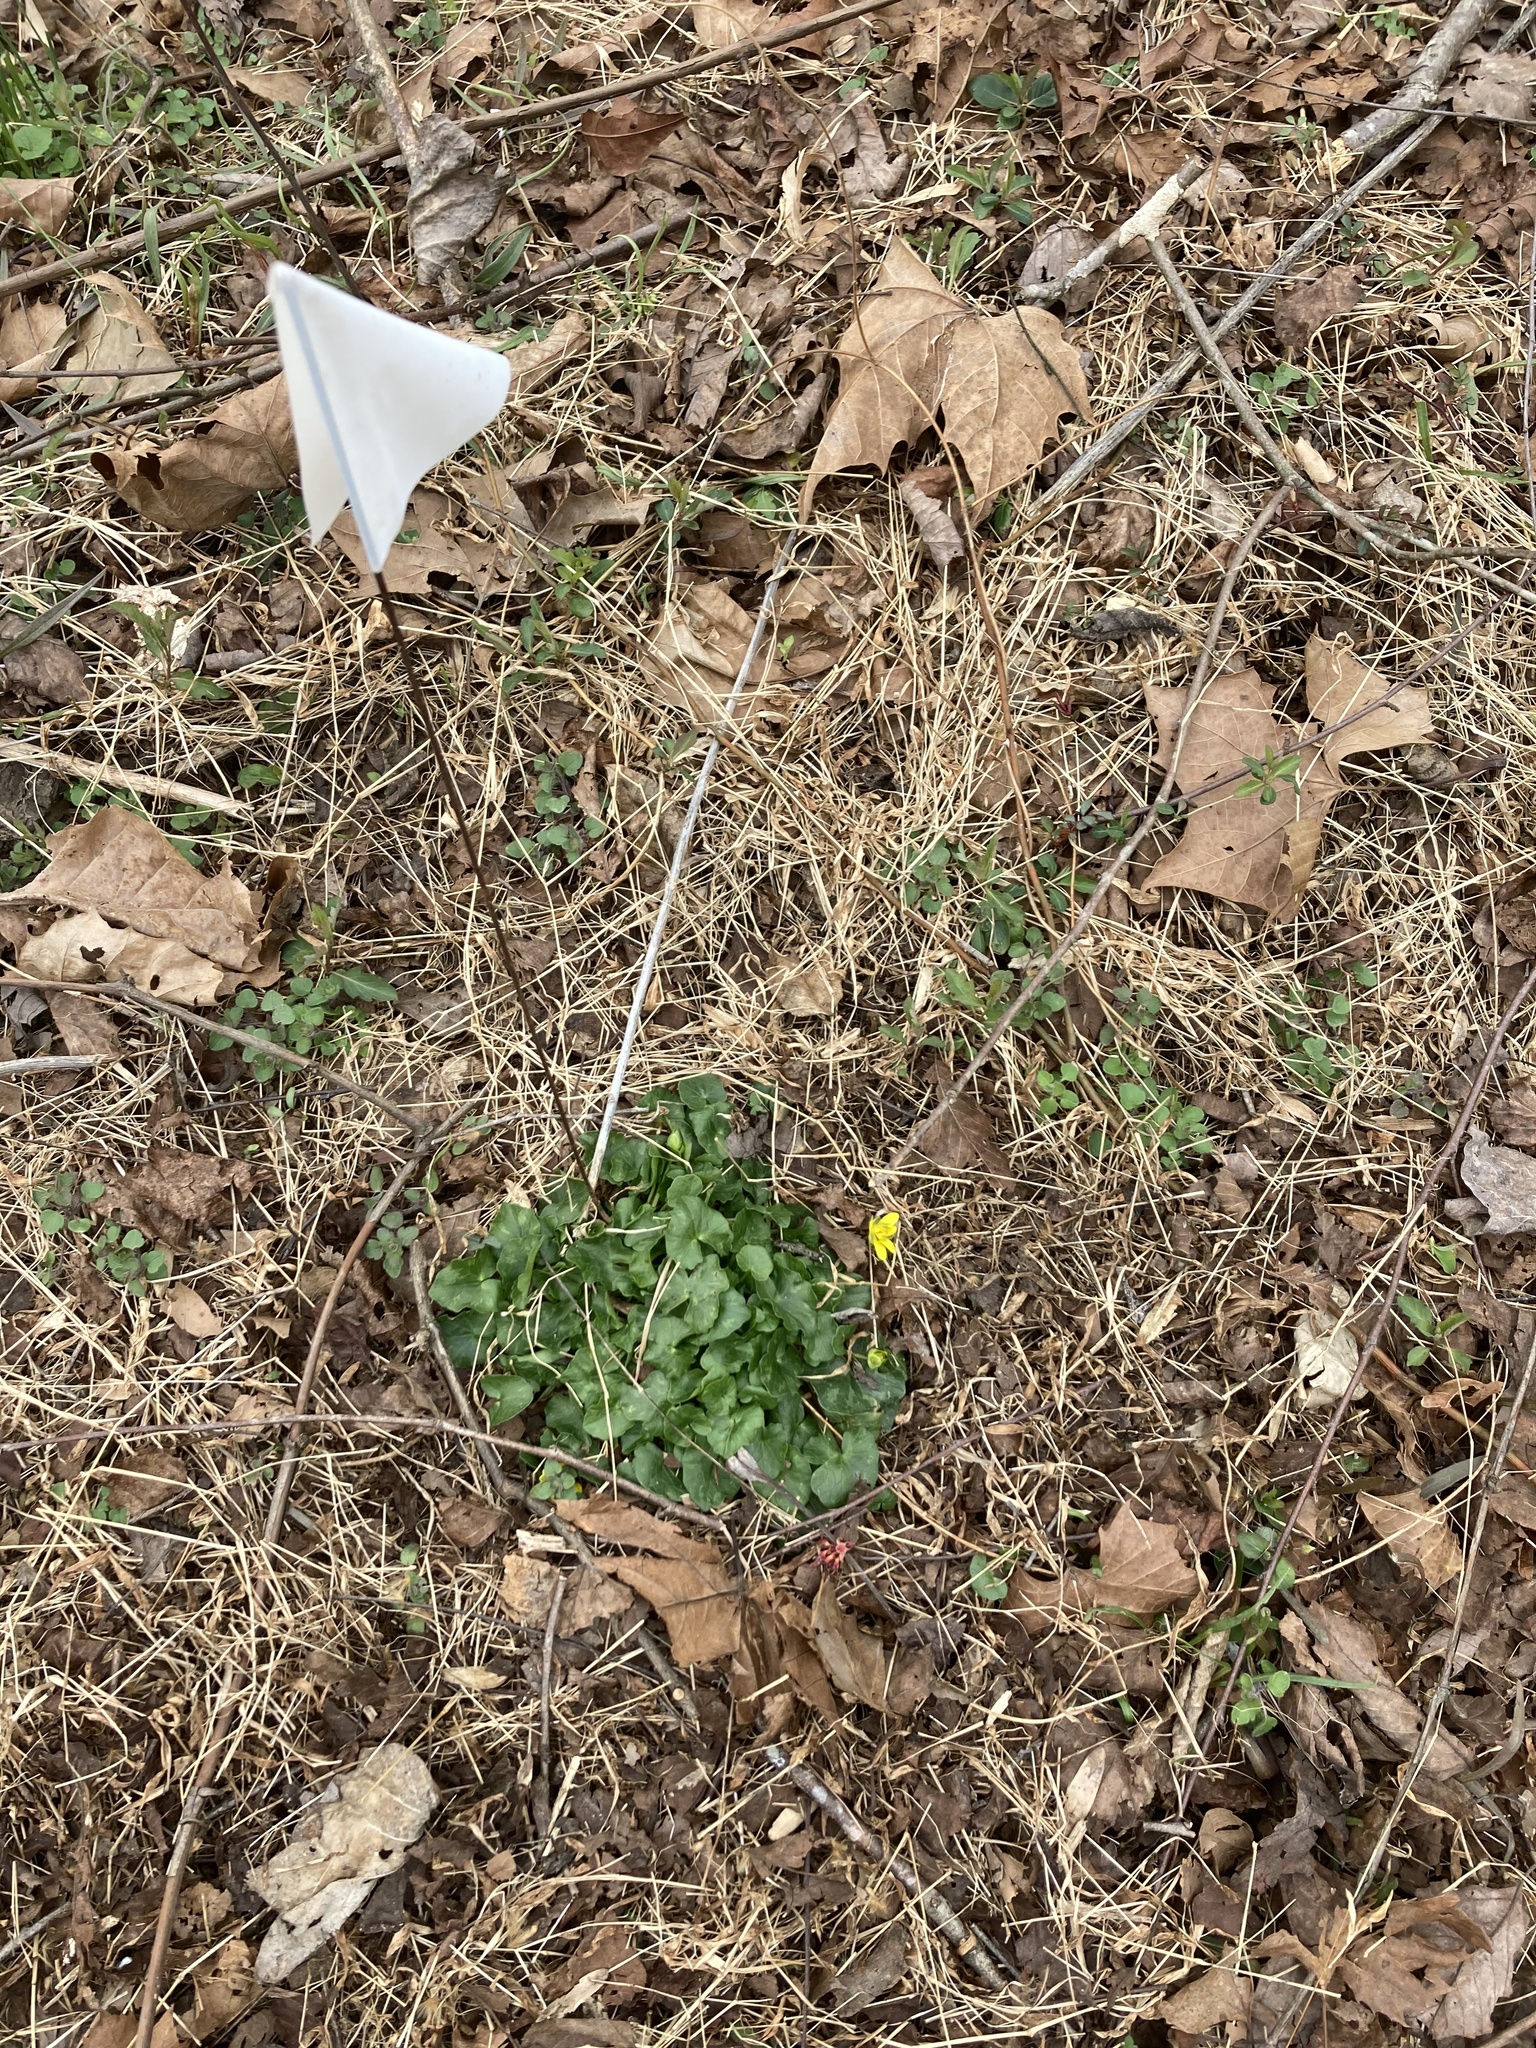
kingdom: Plantae
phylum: Tracheophyta
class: Magnoliopsida
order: Ranunculales
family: Ranunculaceae
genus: Ficaria
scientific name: Ficaria verna
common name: Lesser celandine
